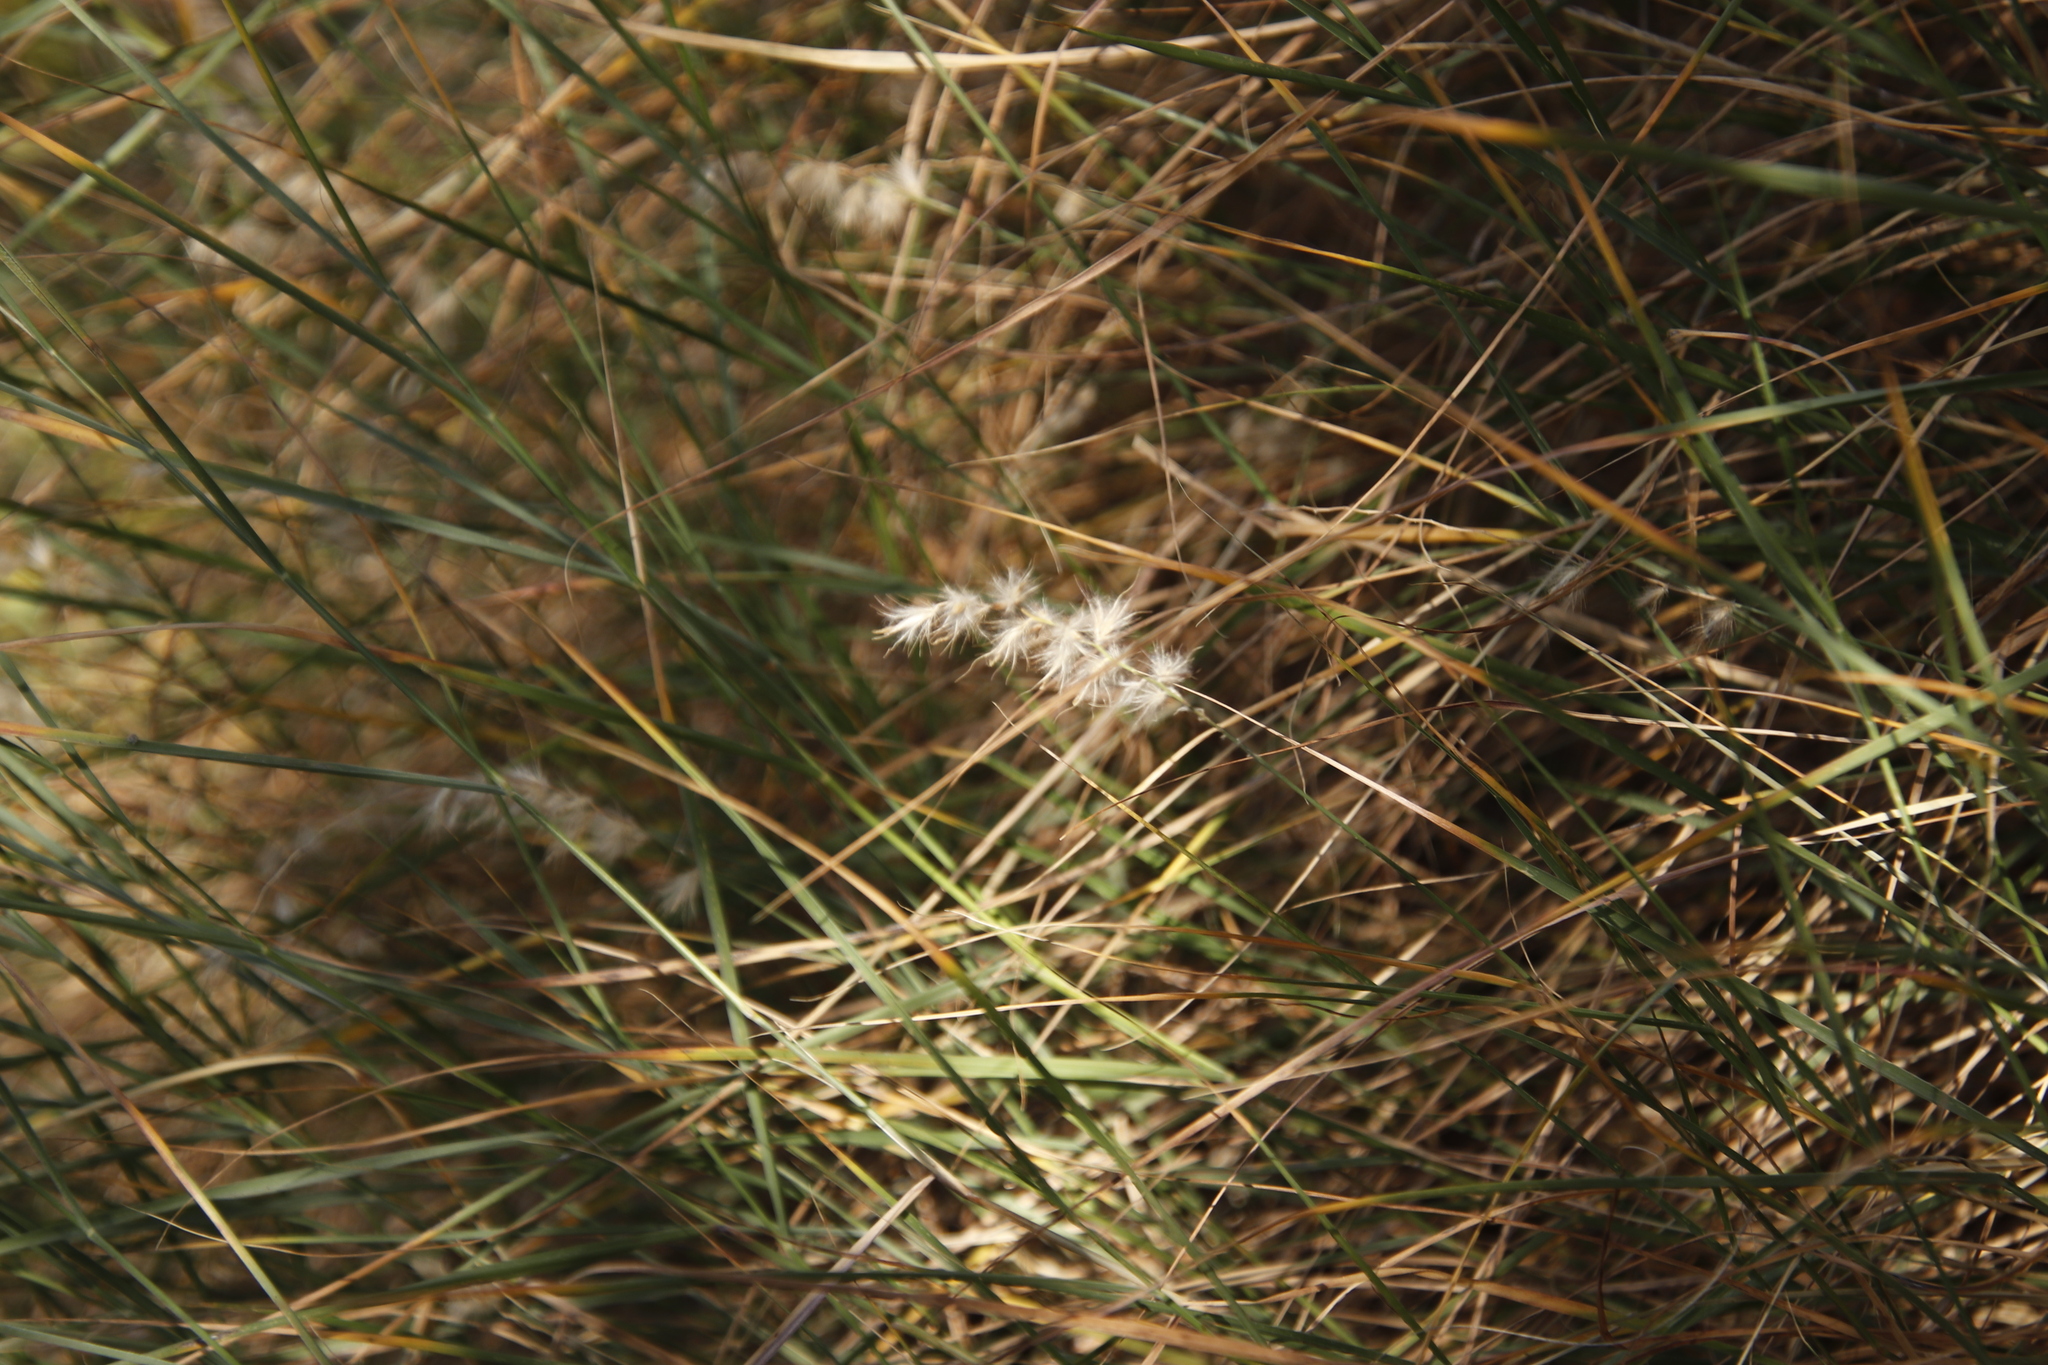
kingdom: Plantae
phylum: Tracheophyta
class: Liliopsida
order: Poales
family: Poaceae
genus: Cenchrus
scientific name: Cenchrus ciliaris
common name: Buffelgrass
